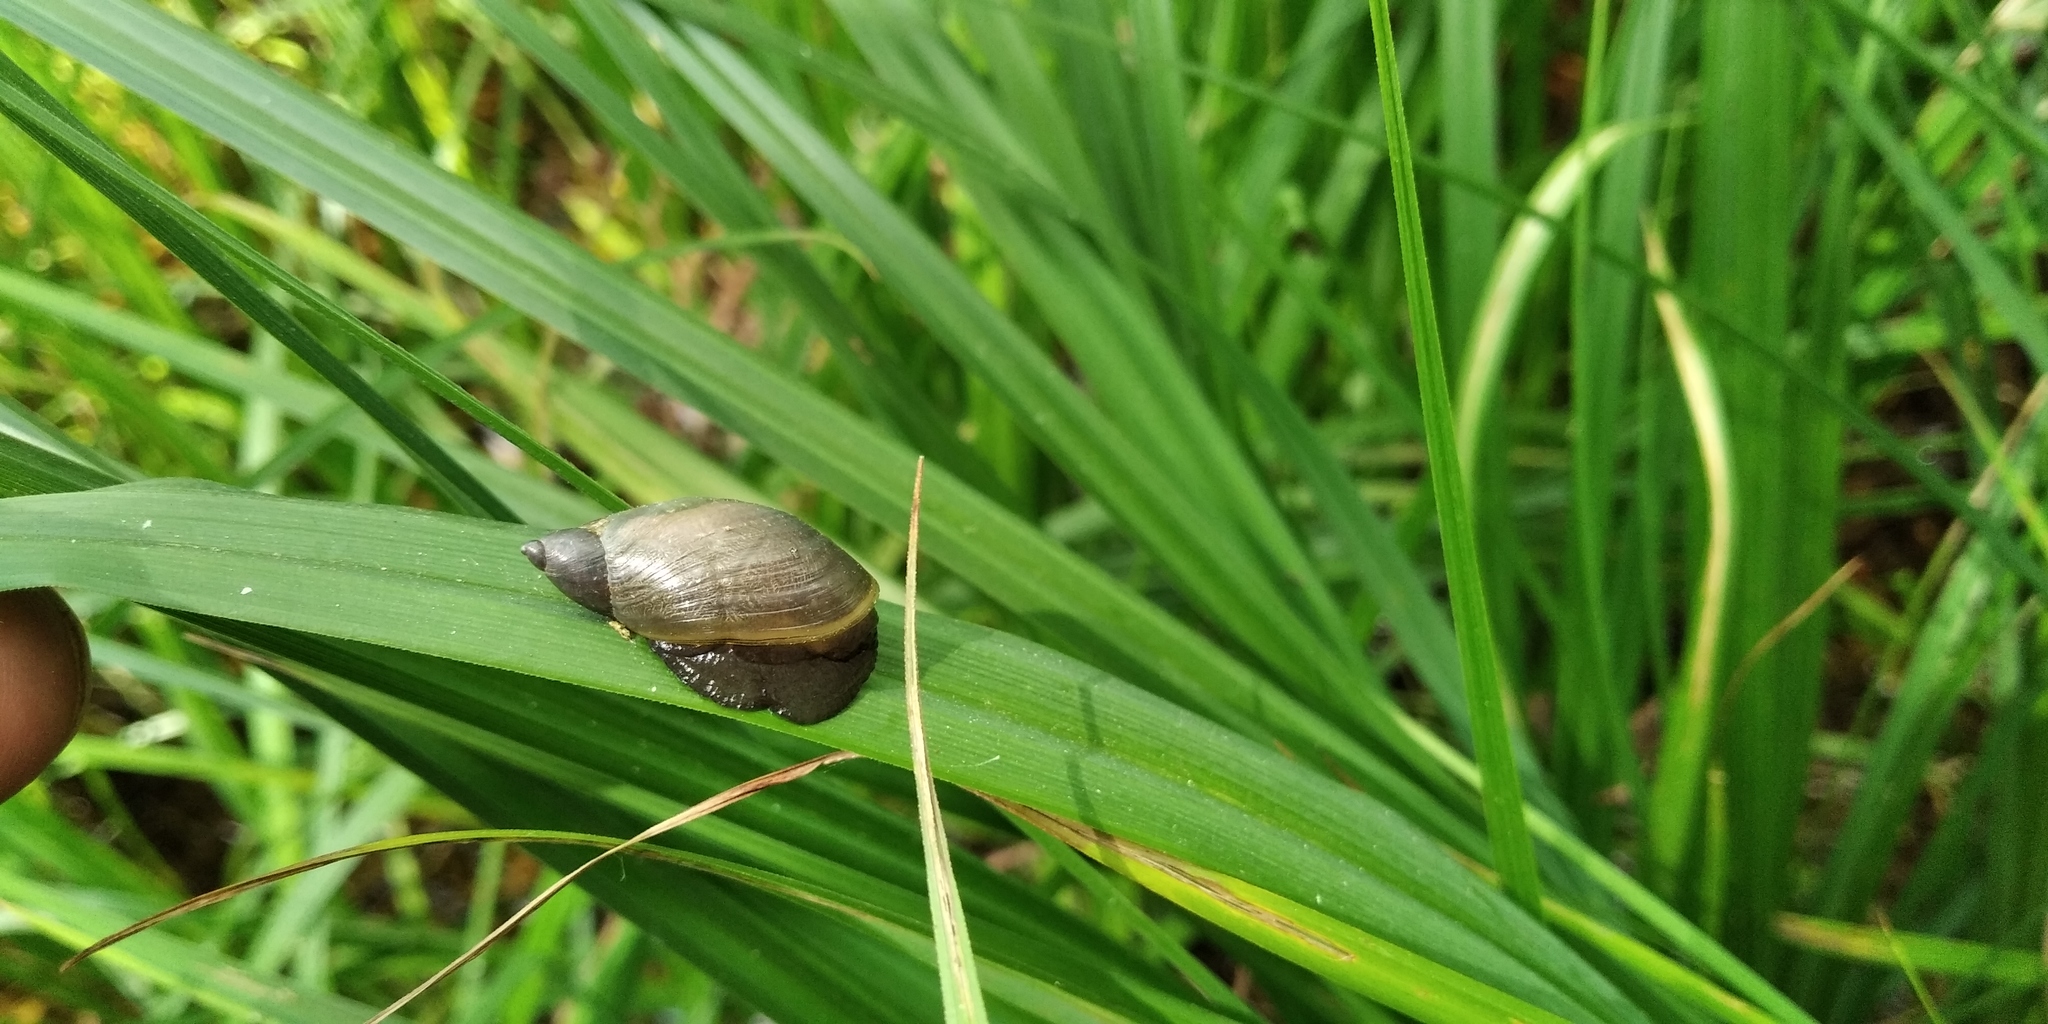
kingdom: Animalia
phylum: Mollusca
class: Gastropoda
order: Stylommatophora
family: Succineidae
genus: Succinea
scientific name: Succinea putris
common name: European ambersnail
